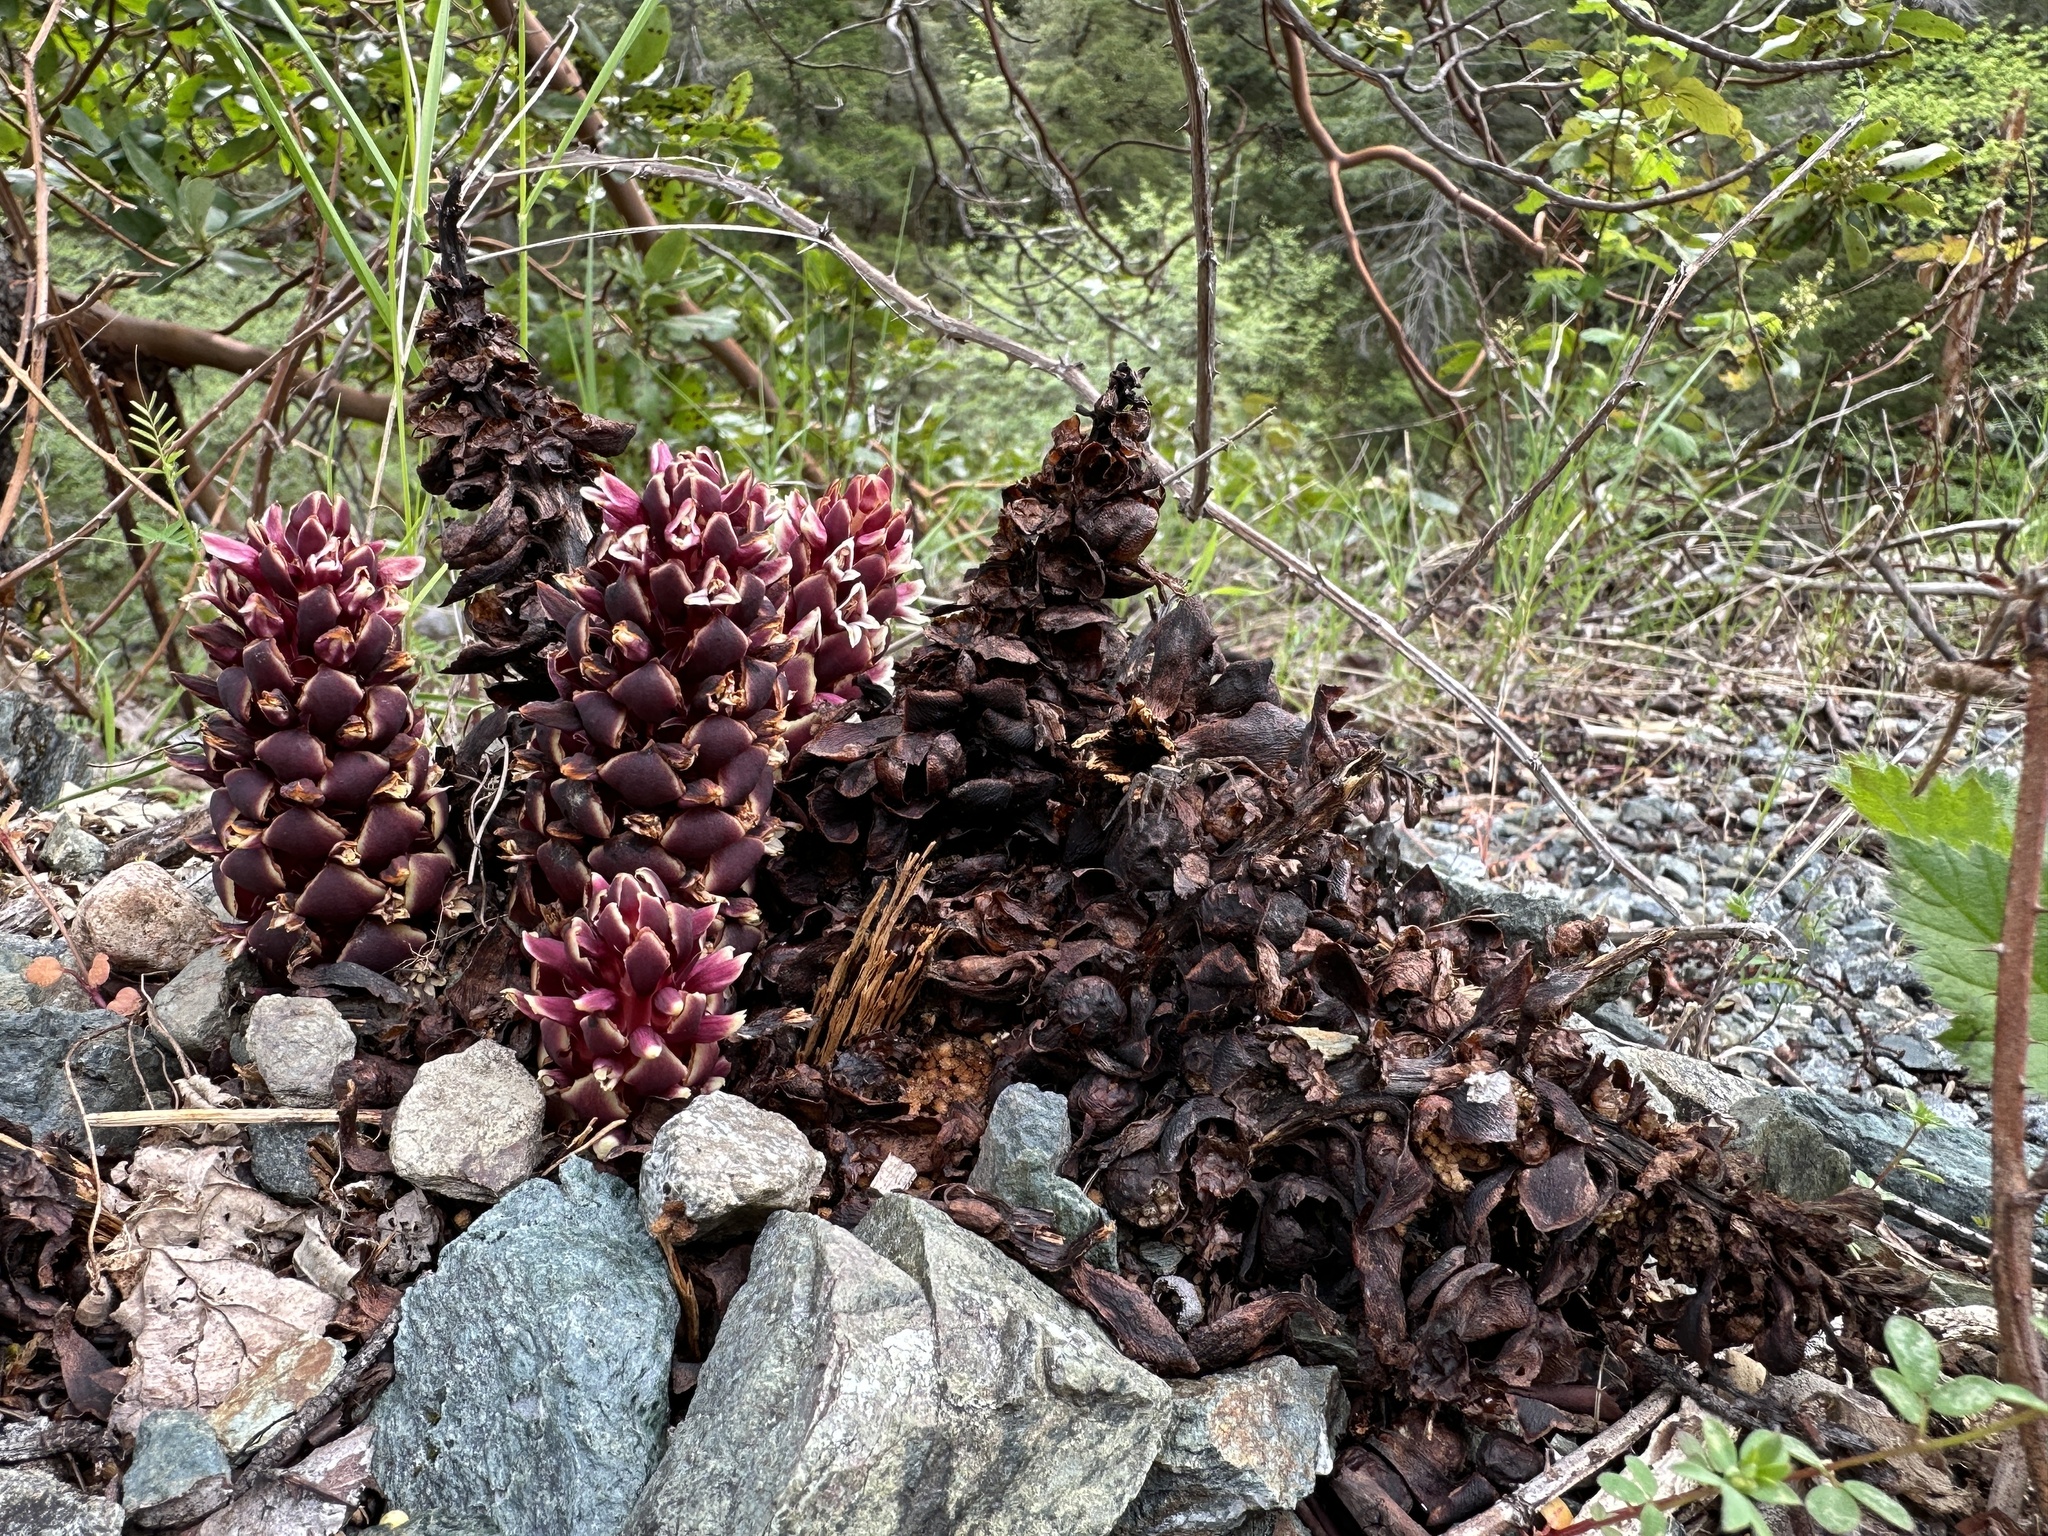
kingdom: Plantae
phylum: Tracheophyta
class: Magnoliopsida
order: Lamiales
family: Orobanchaceae
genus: Kopsiopsis
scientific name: Kopsiopsis strobilacea
